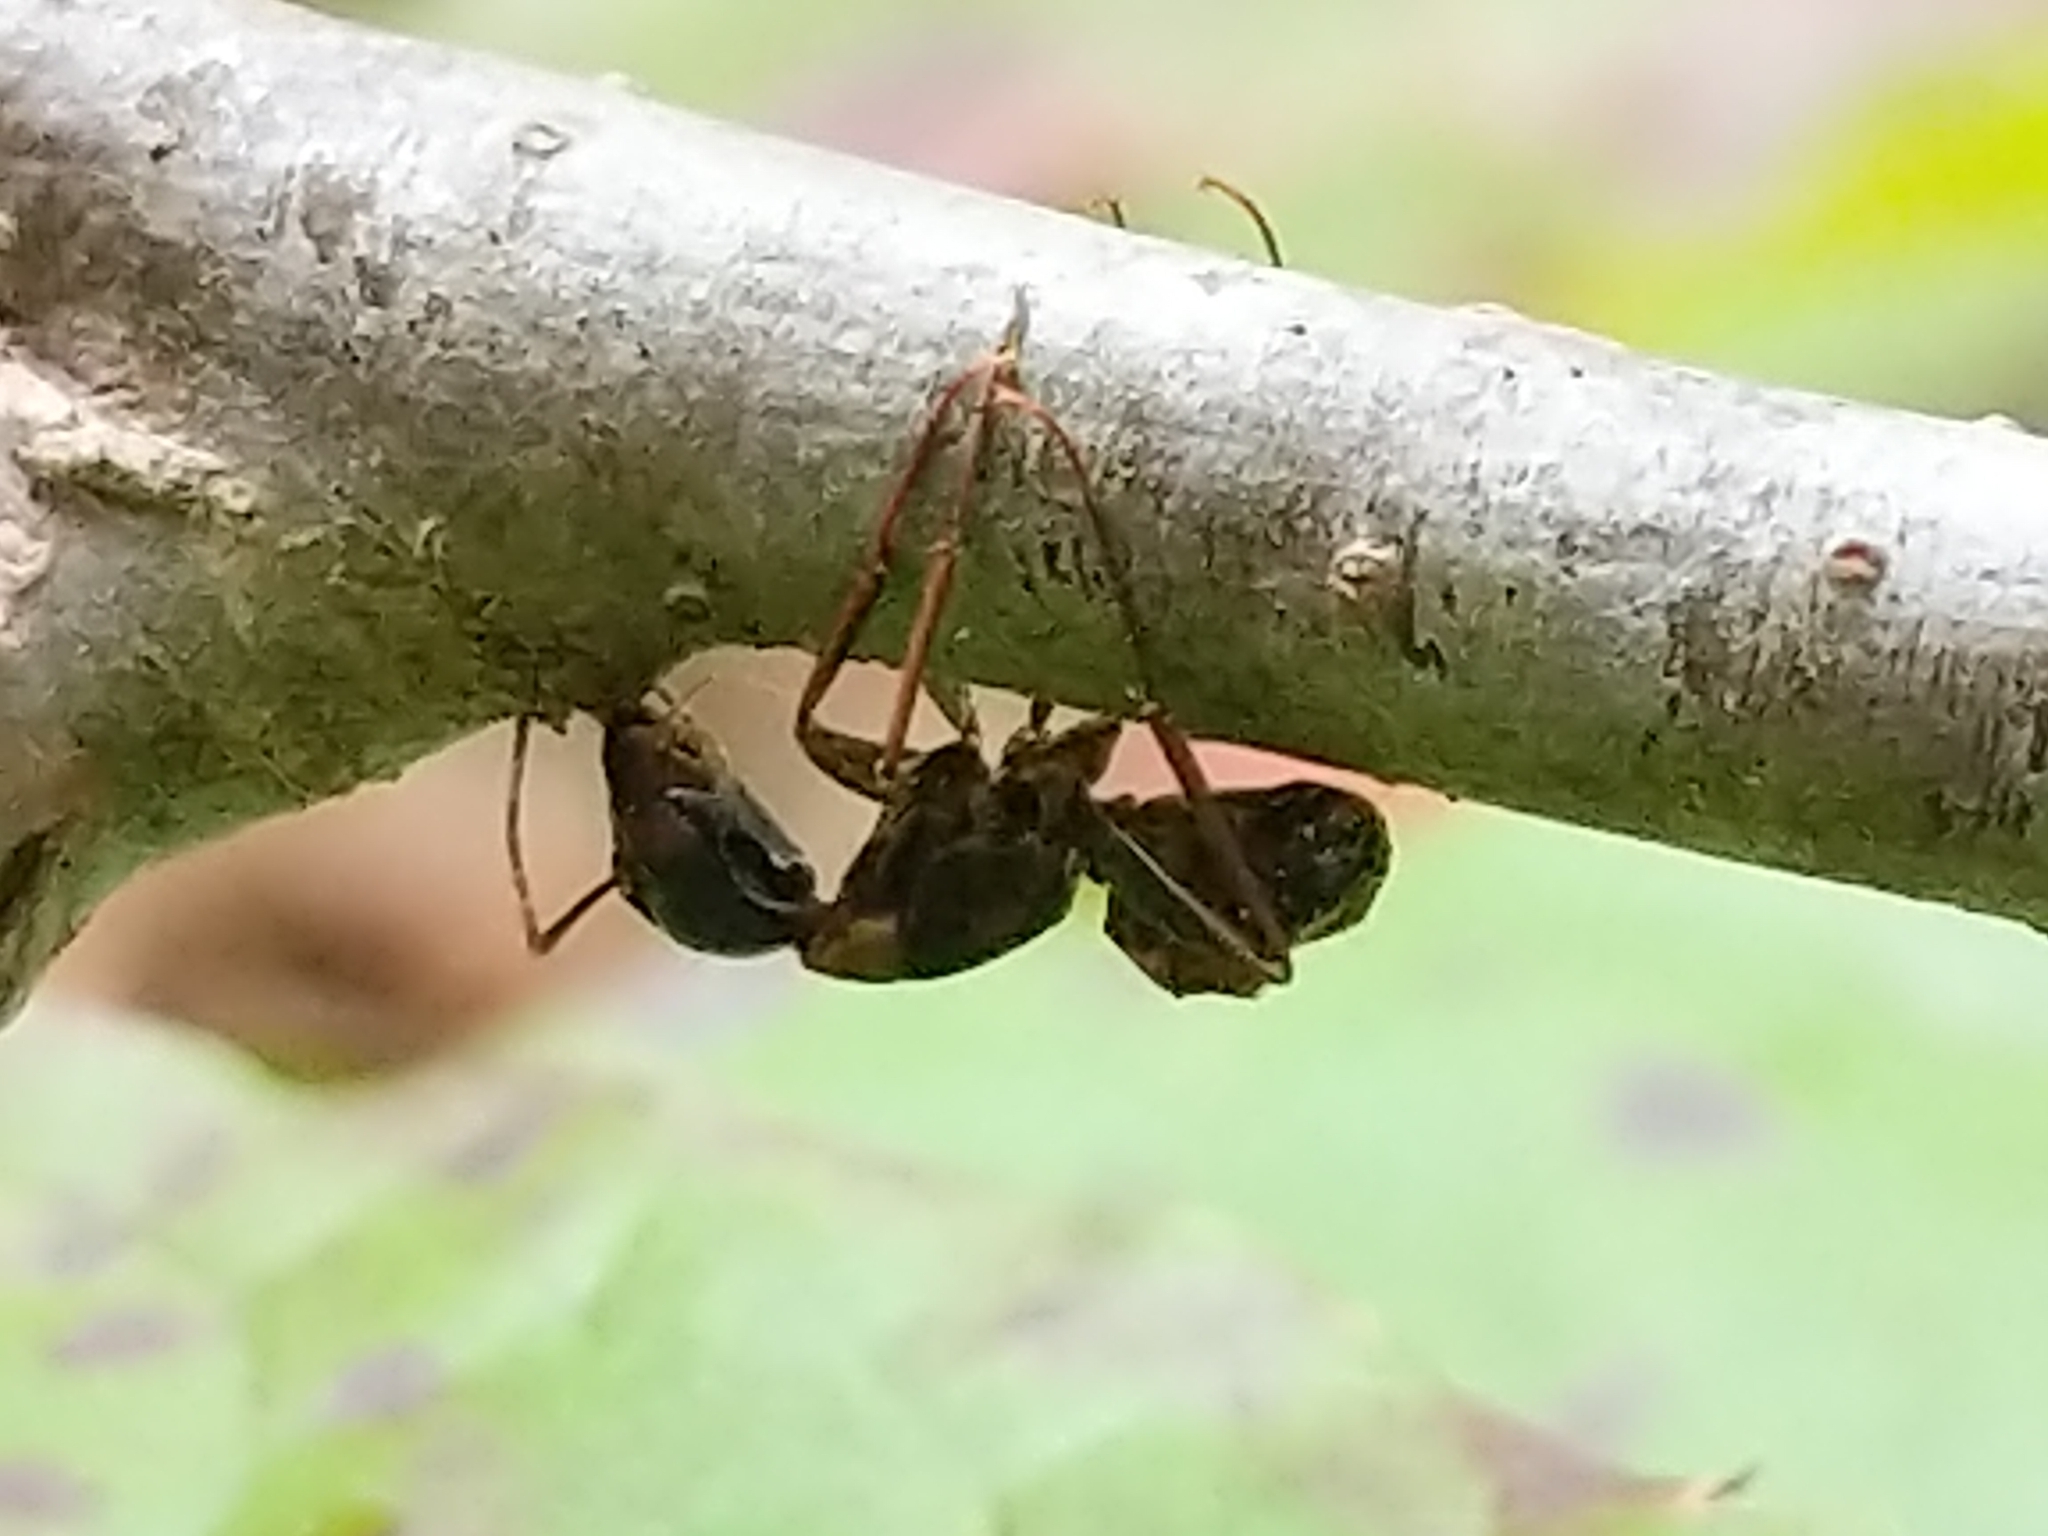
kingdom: Fungi
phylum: Ascomycota
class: Sordariomycetes
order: Hypocreales
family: Ophiocordycipitaceae
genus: Ophiocordyceps
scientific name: Ophiocordyceps kimflemingiae
